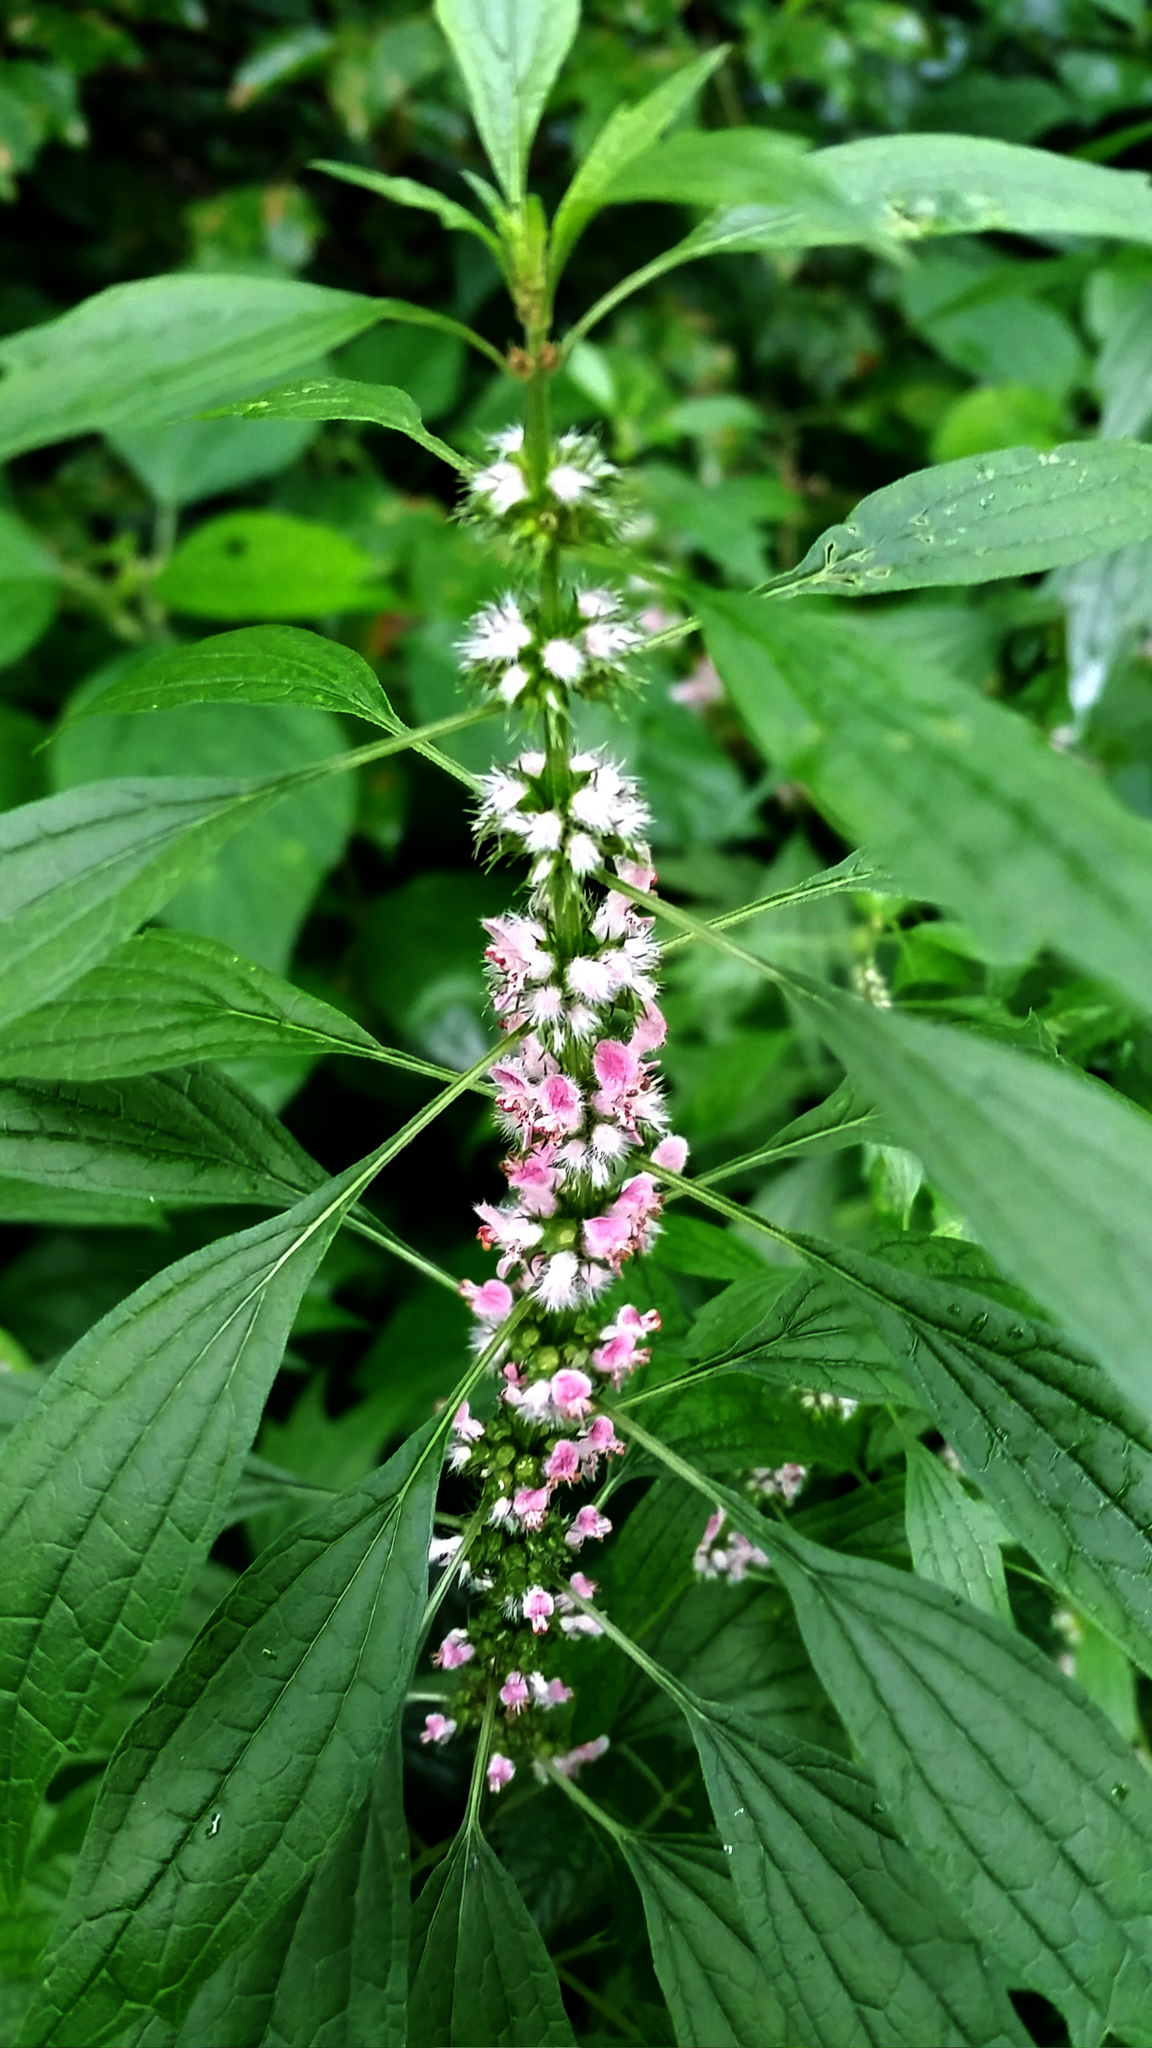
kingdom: Plantae
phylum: Tracheophyta
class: Magnoliopsida
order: Lamiales
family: Lamiaceae
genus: Leonurus
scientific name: Leonurus cardiaca
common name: Motherwort
